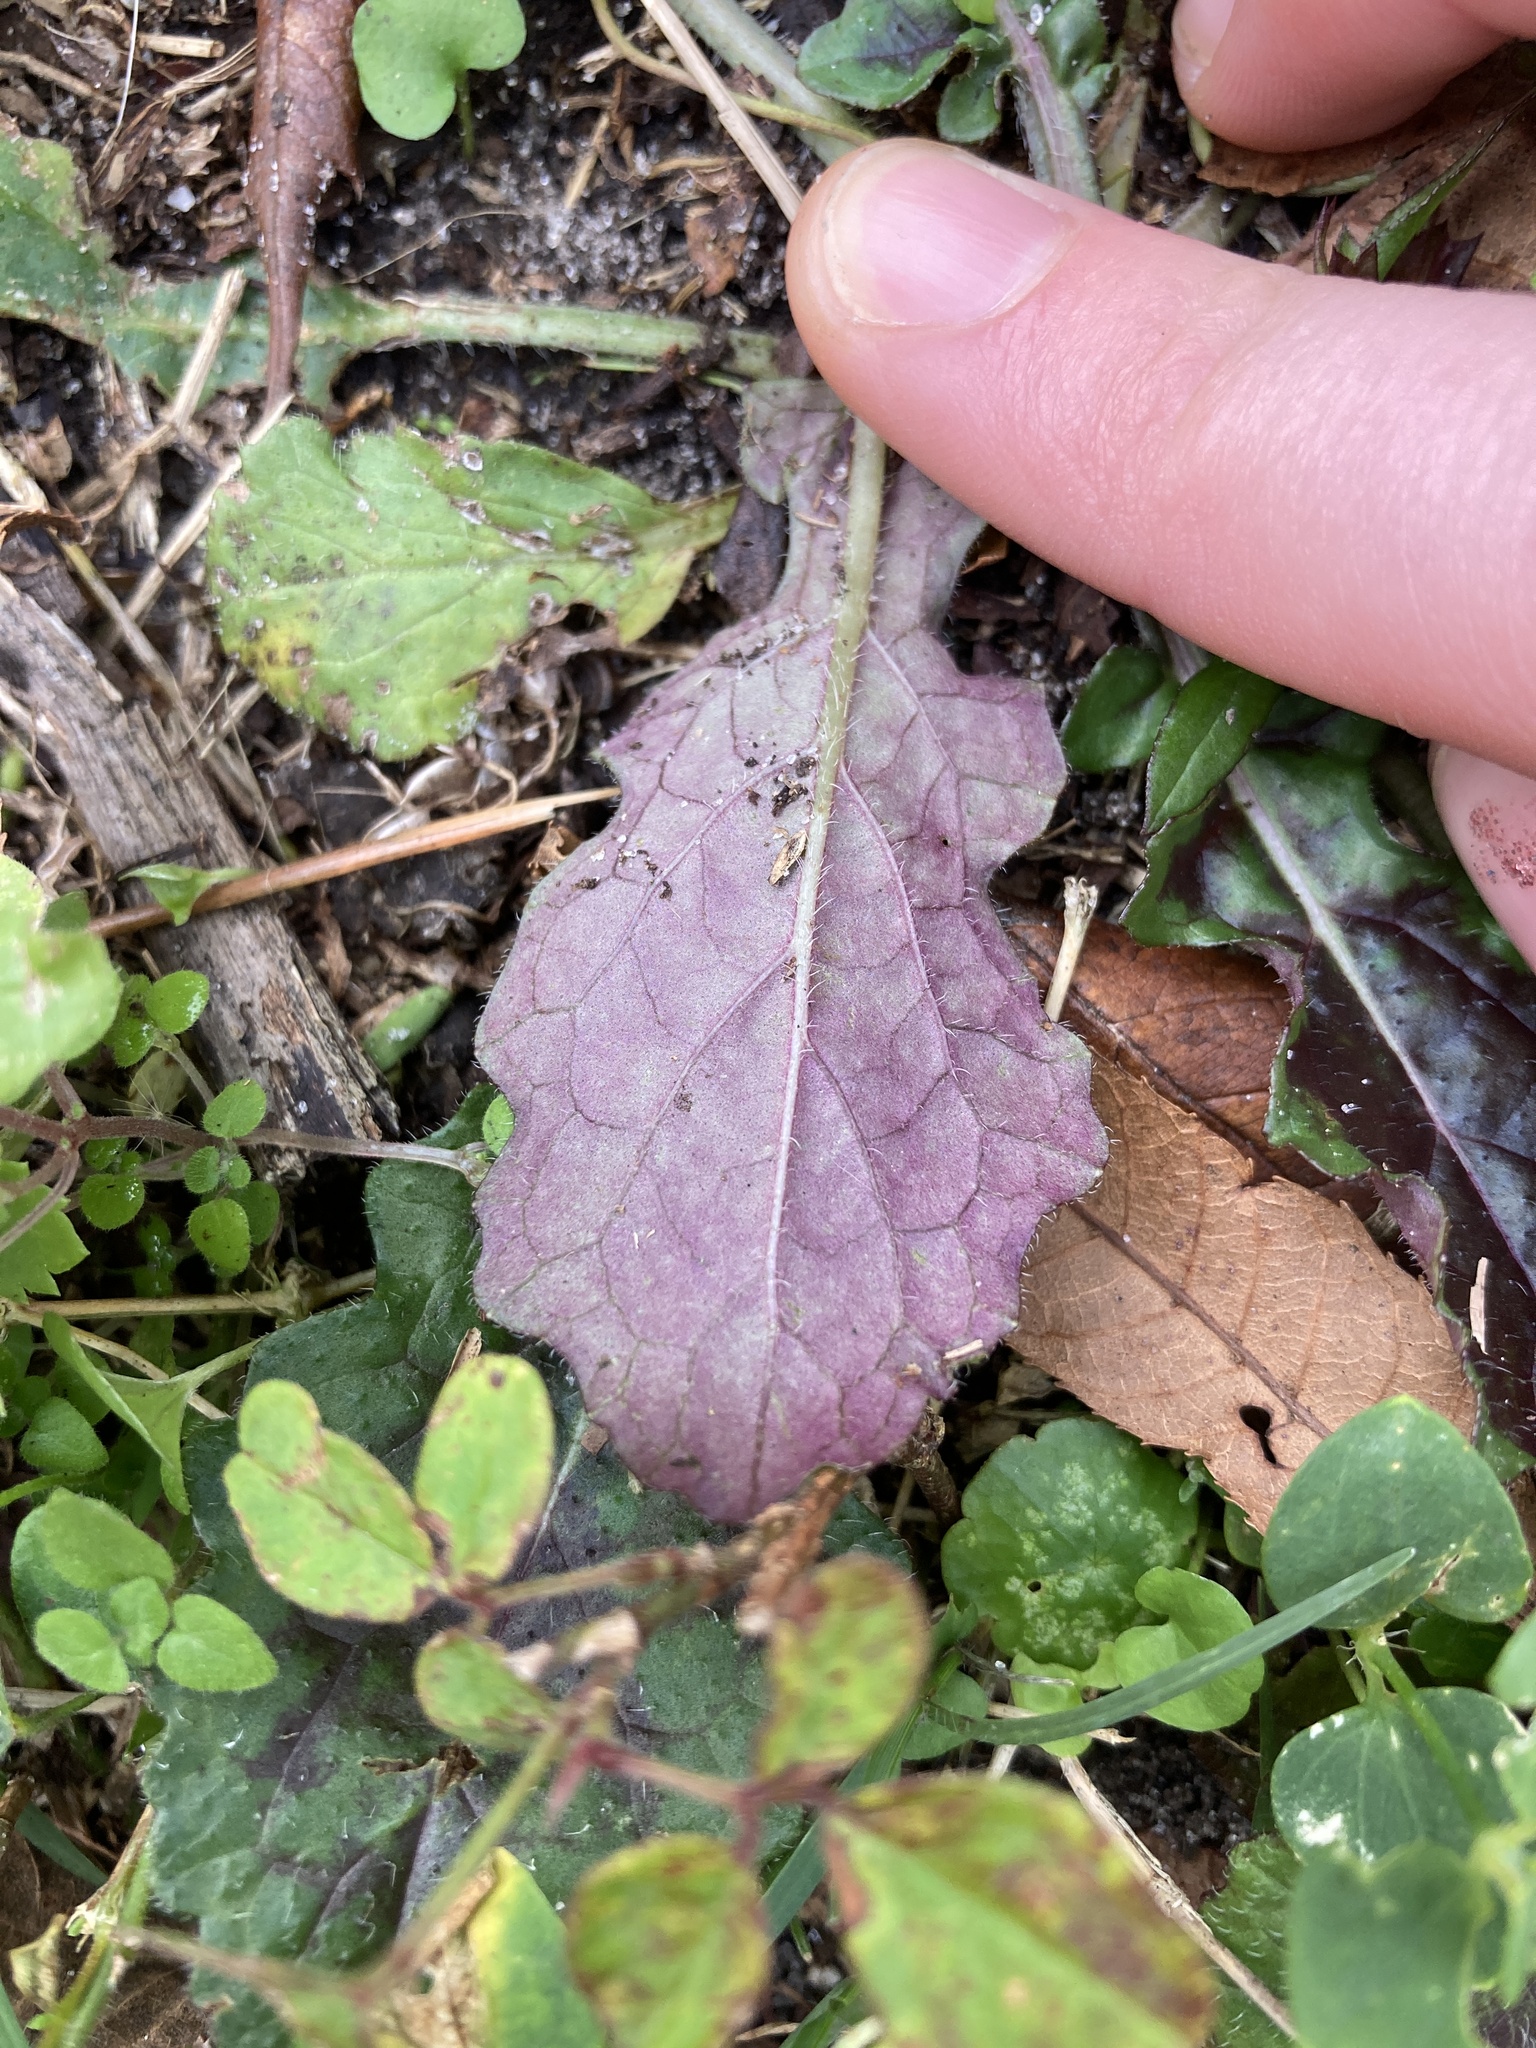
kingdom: Plantae
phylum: Tracheophyta
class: Magnoliopsida
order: Lamiales
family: Lamiaceae
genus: Salvia
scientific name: Salvia lyrata
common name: Cancerweed
